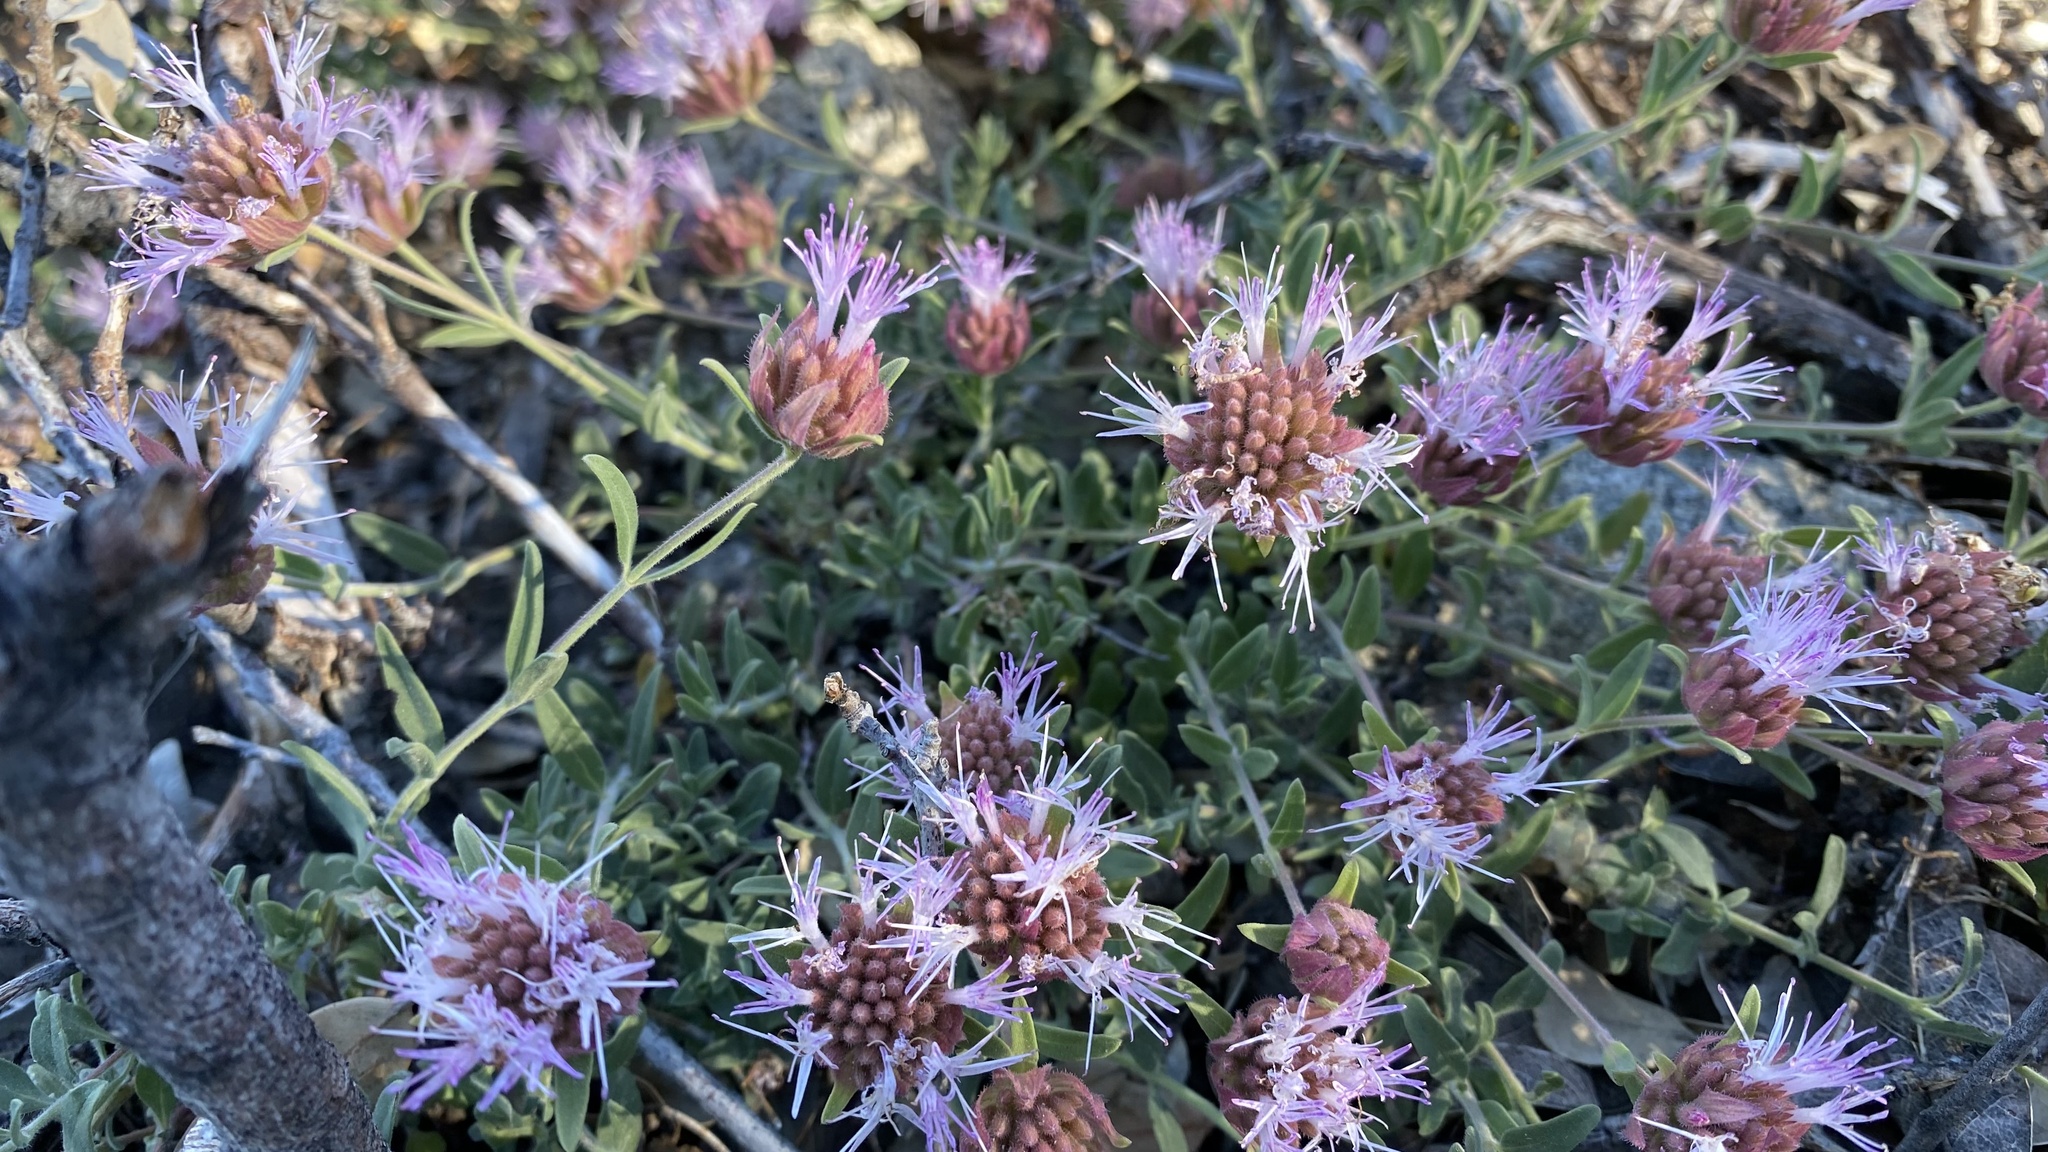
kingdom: Plantae
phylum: Tracheophyta
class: Magnoliopsida
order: Lamiales
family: Lamiaceae
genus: Monardella
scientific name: Monardella australis
